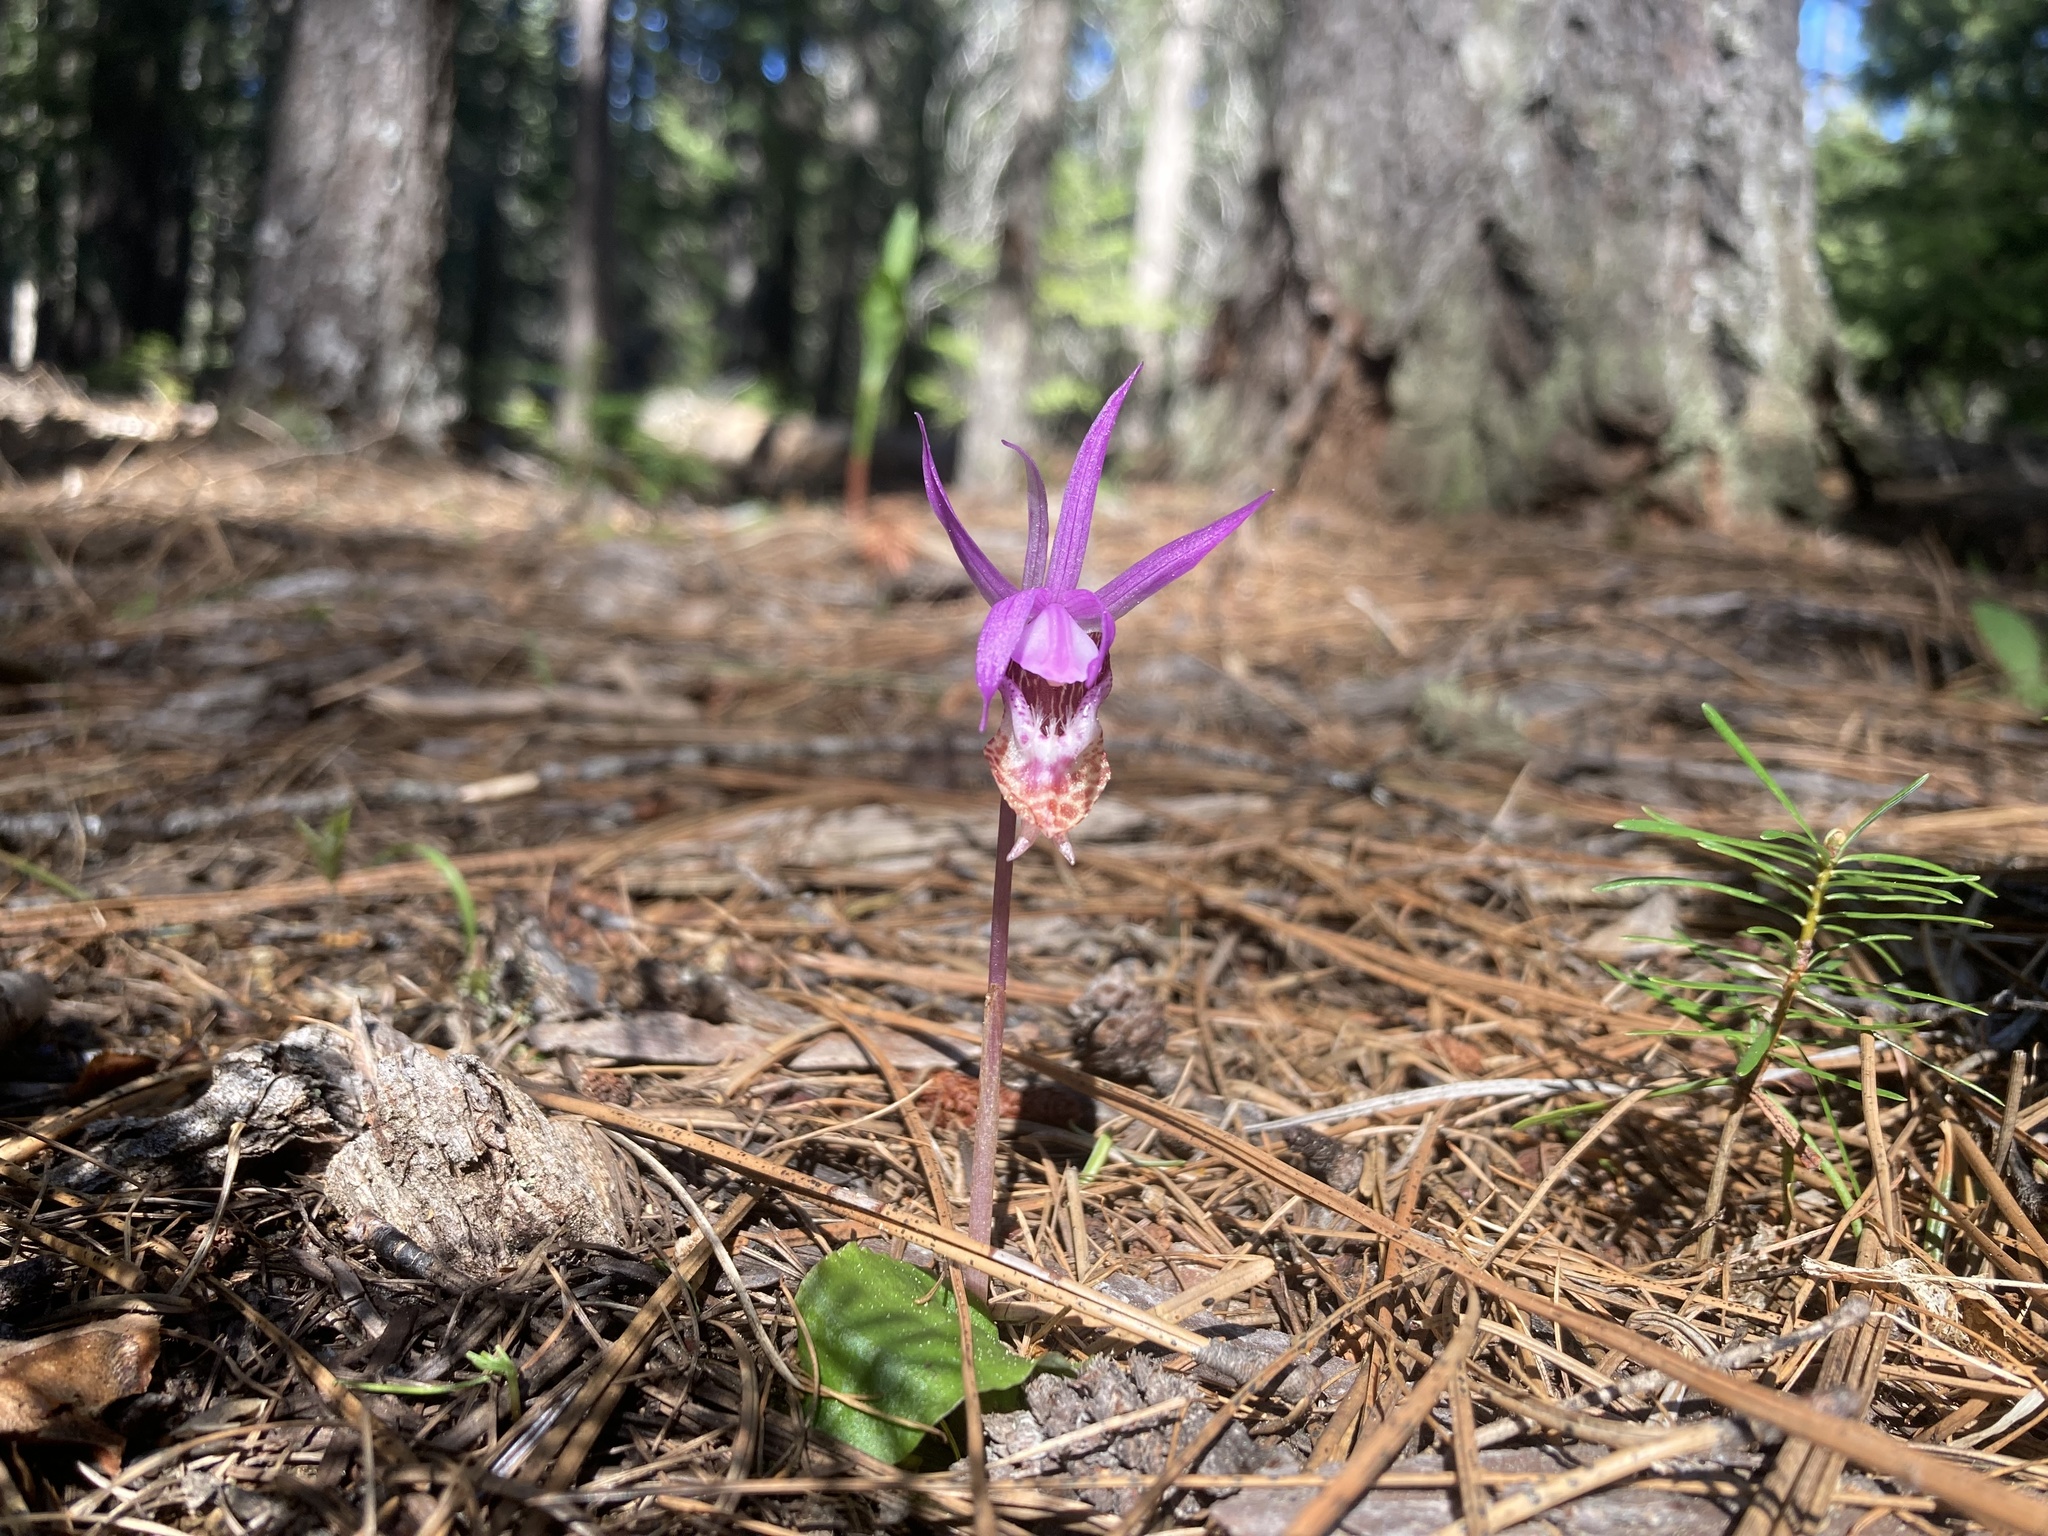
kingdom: Plantae
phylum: Tracheophyta
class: Liliopsida
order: Asparagales
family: Orchidaceae
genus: Calypso
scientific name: Calypso bulbosa
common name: Calypso
